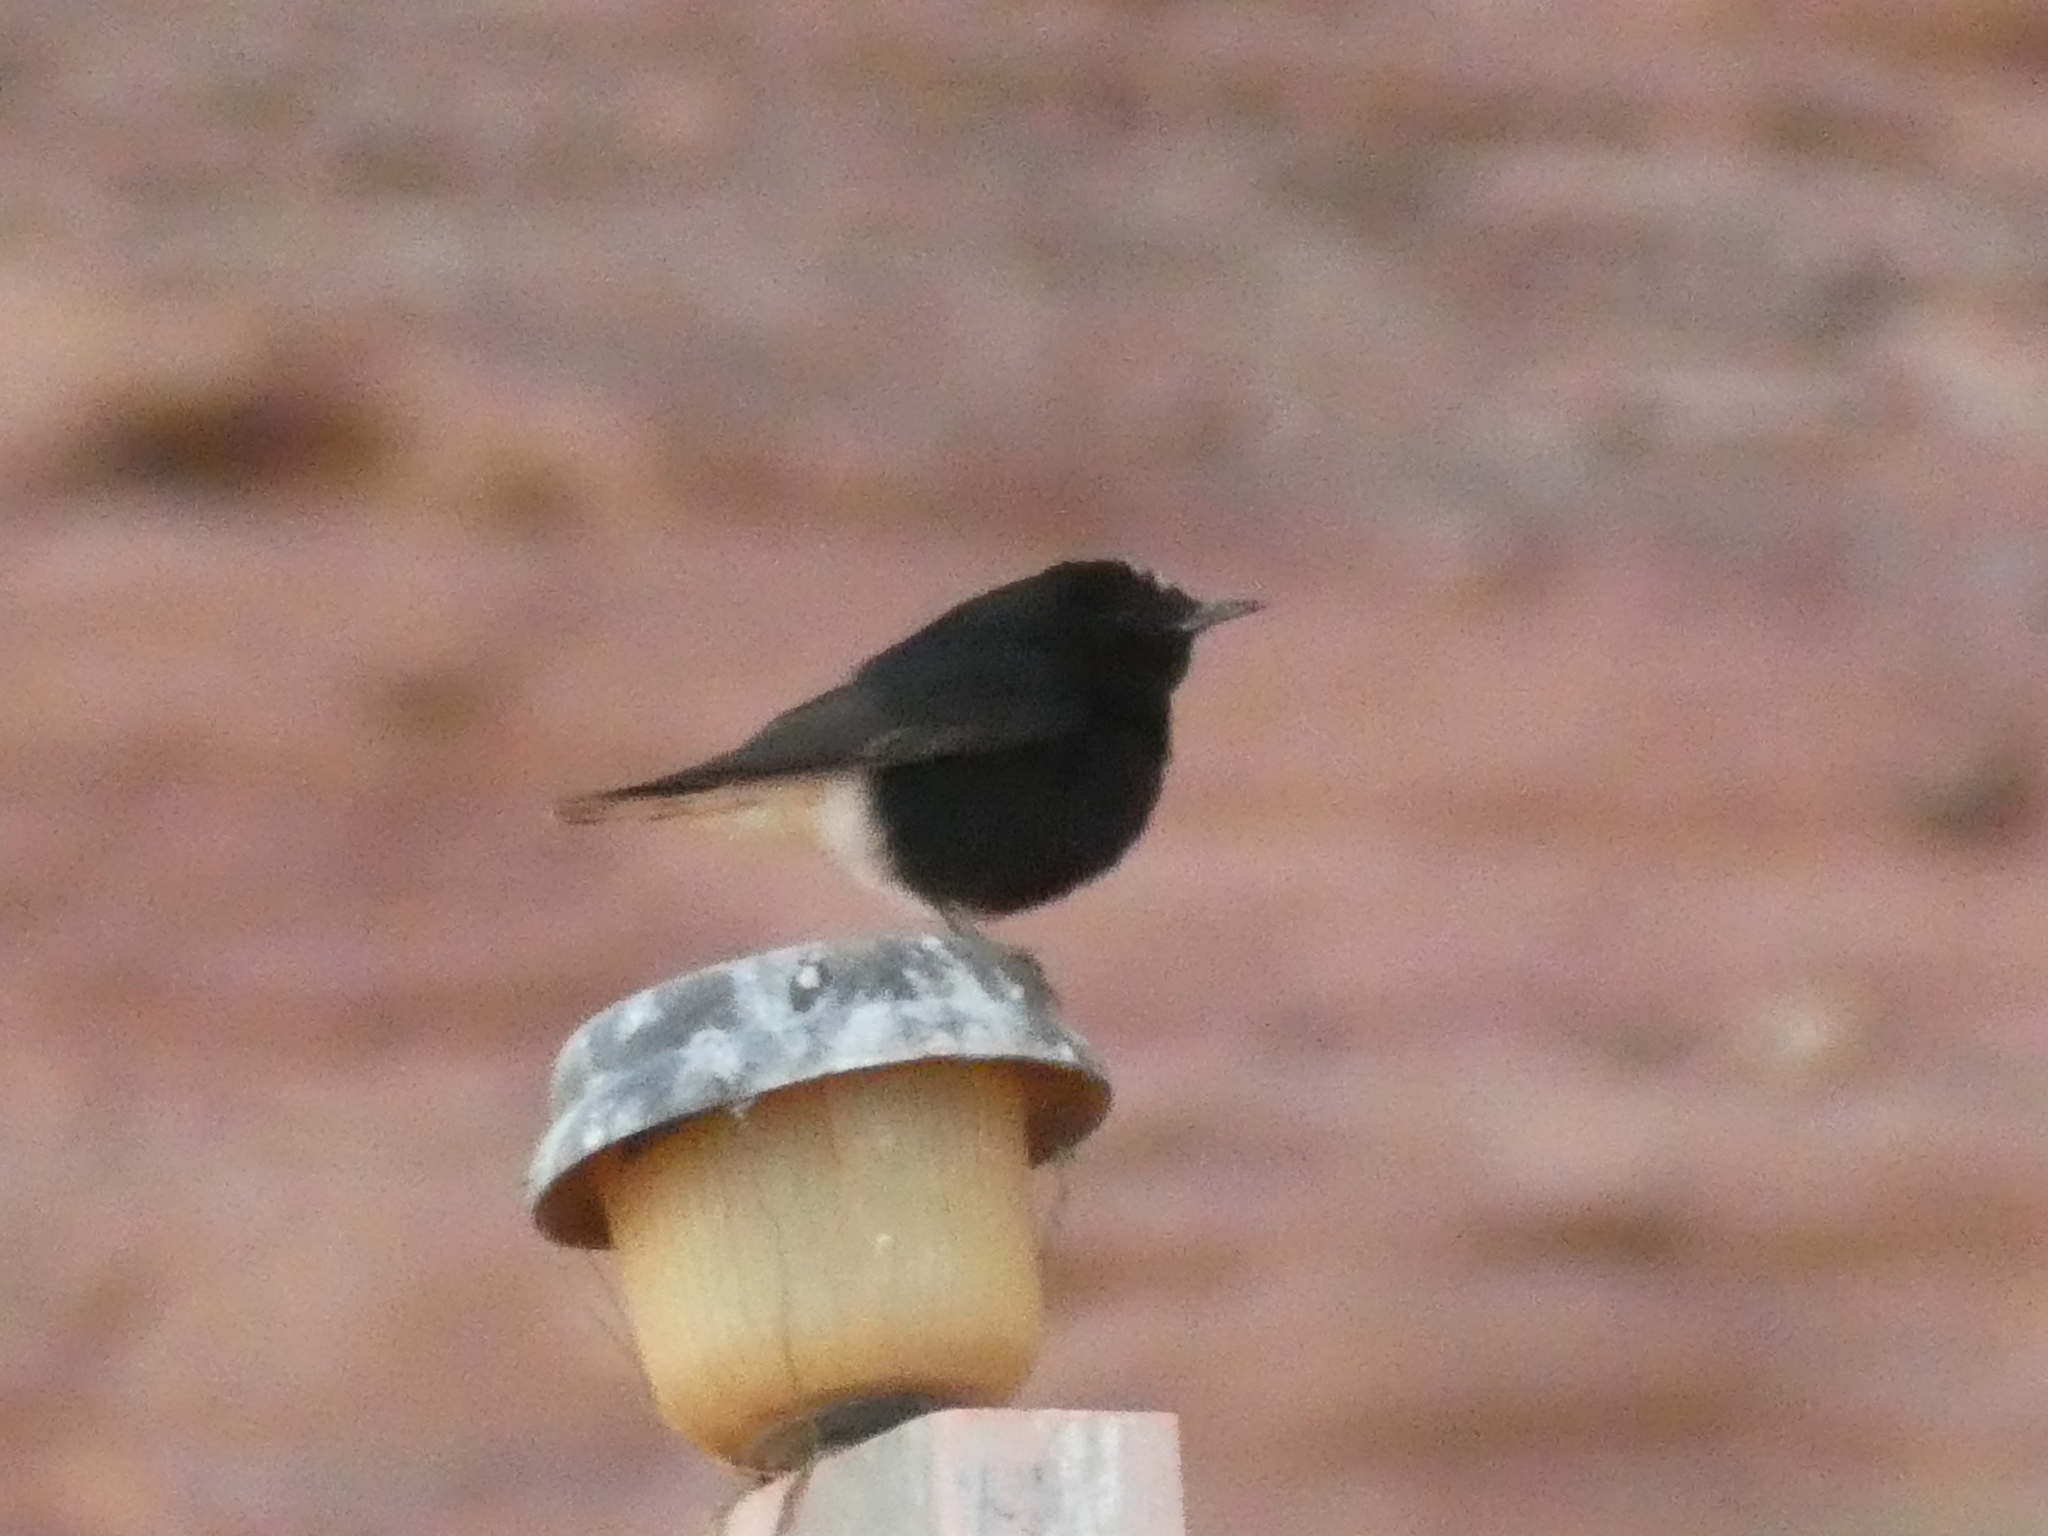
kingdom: Animalia
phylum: Chordata
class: Aves
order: Passeriformes
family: Muscicapidae
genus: Oenanthe
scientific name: Oenanthe leucopyga
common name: White-crowned wheatear
